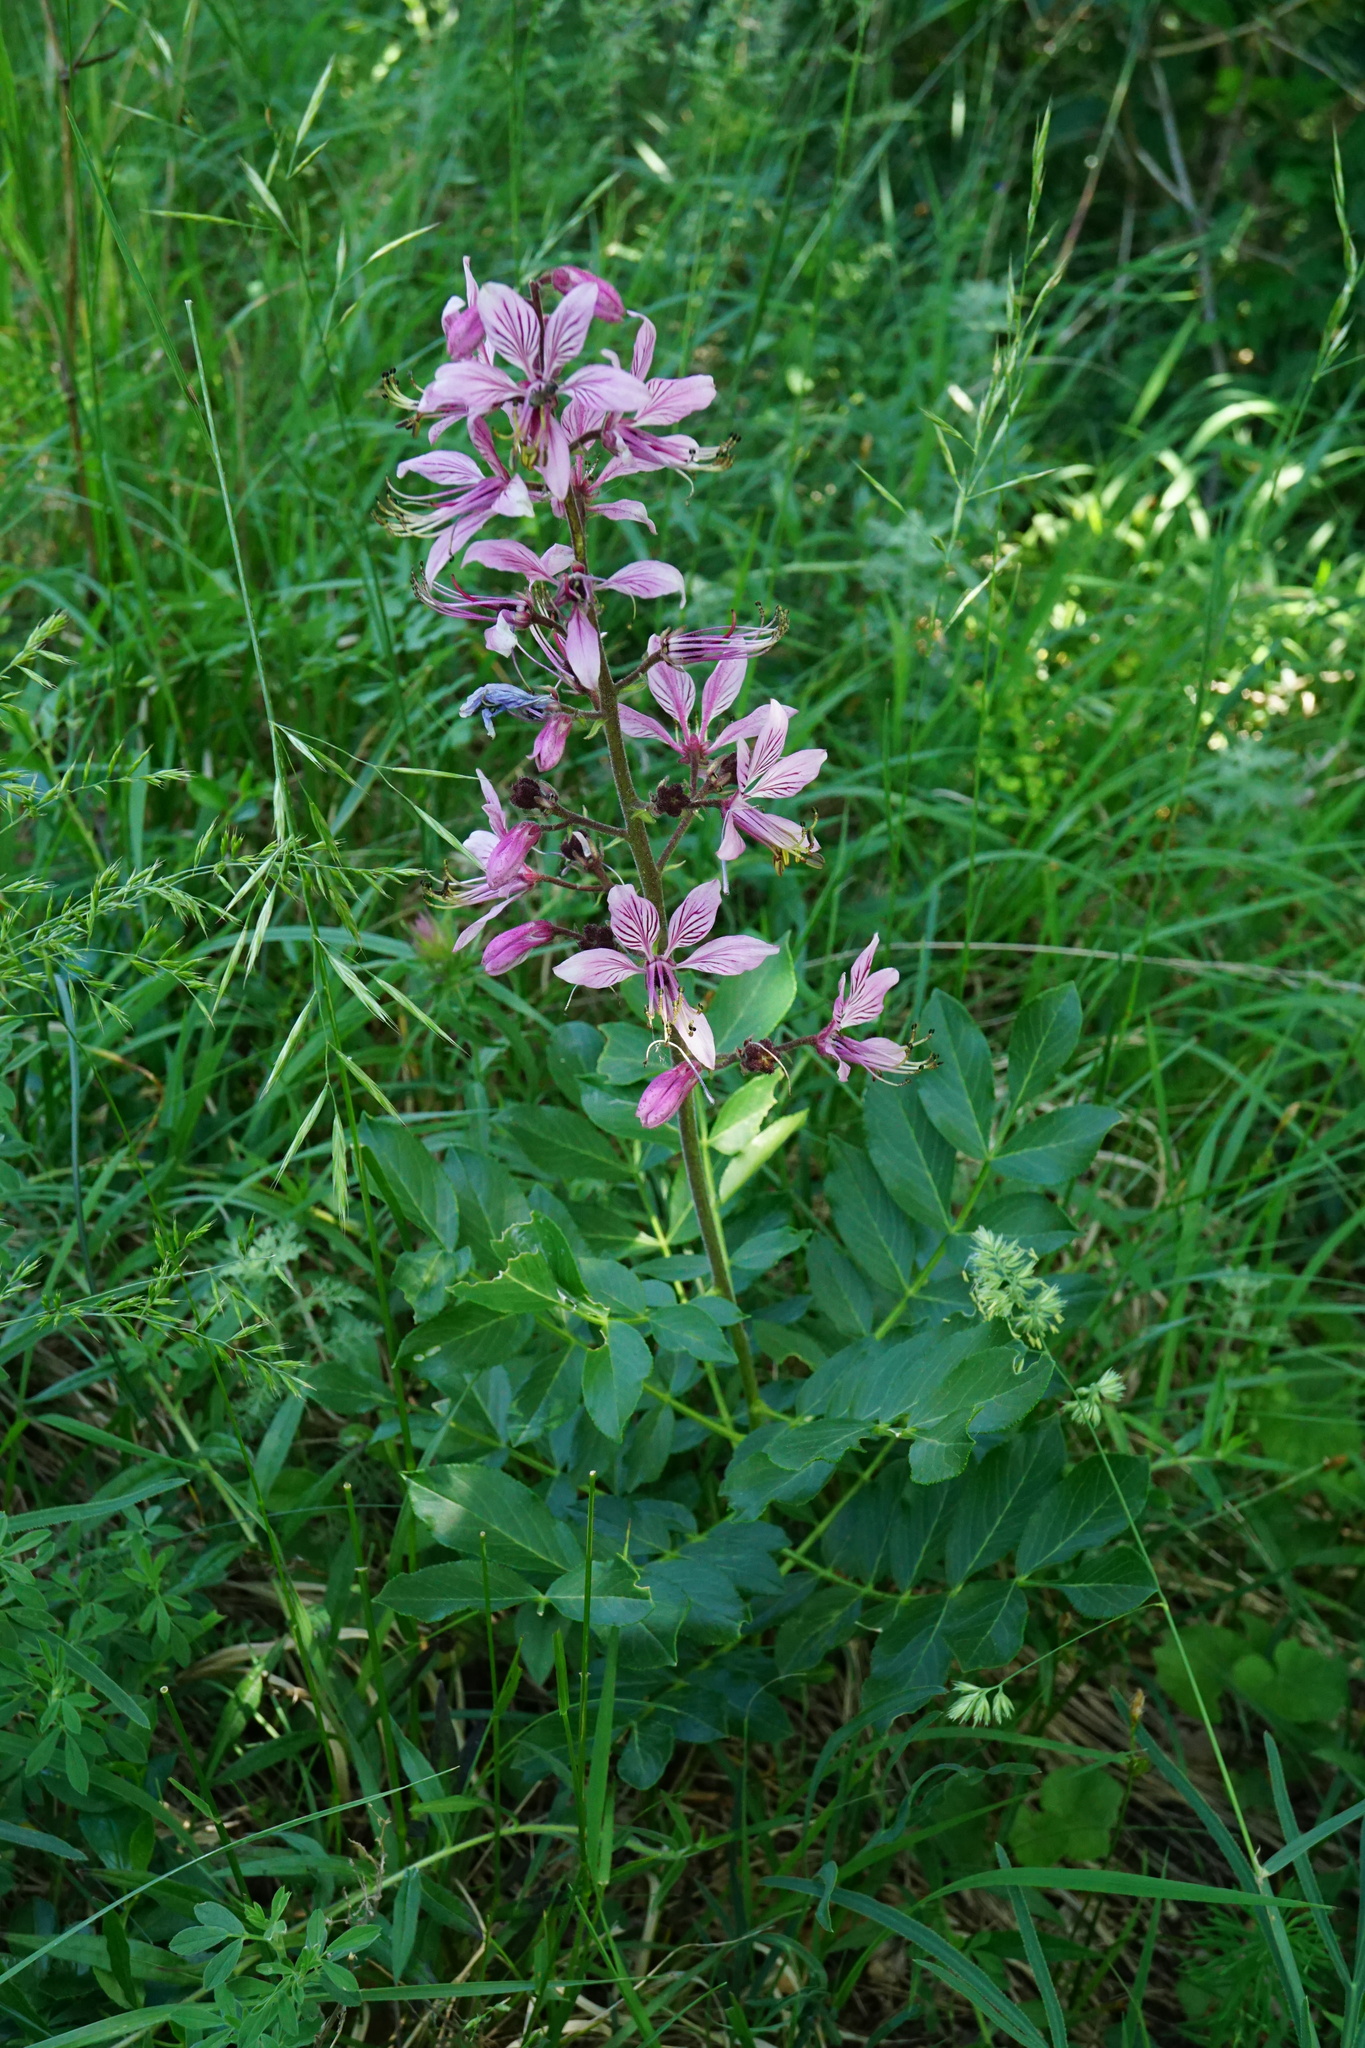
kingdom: Plantae
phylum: Tracheophyta
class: Magnoliopsida
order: Sapindales
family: Rutaceae
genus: Dictamnus
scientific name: Dictamnus albus
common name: Gasplant
